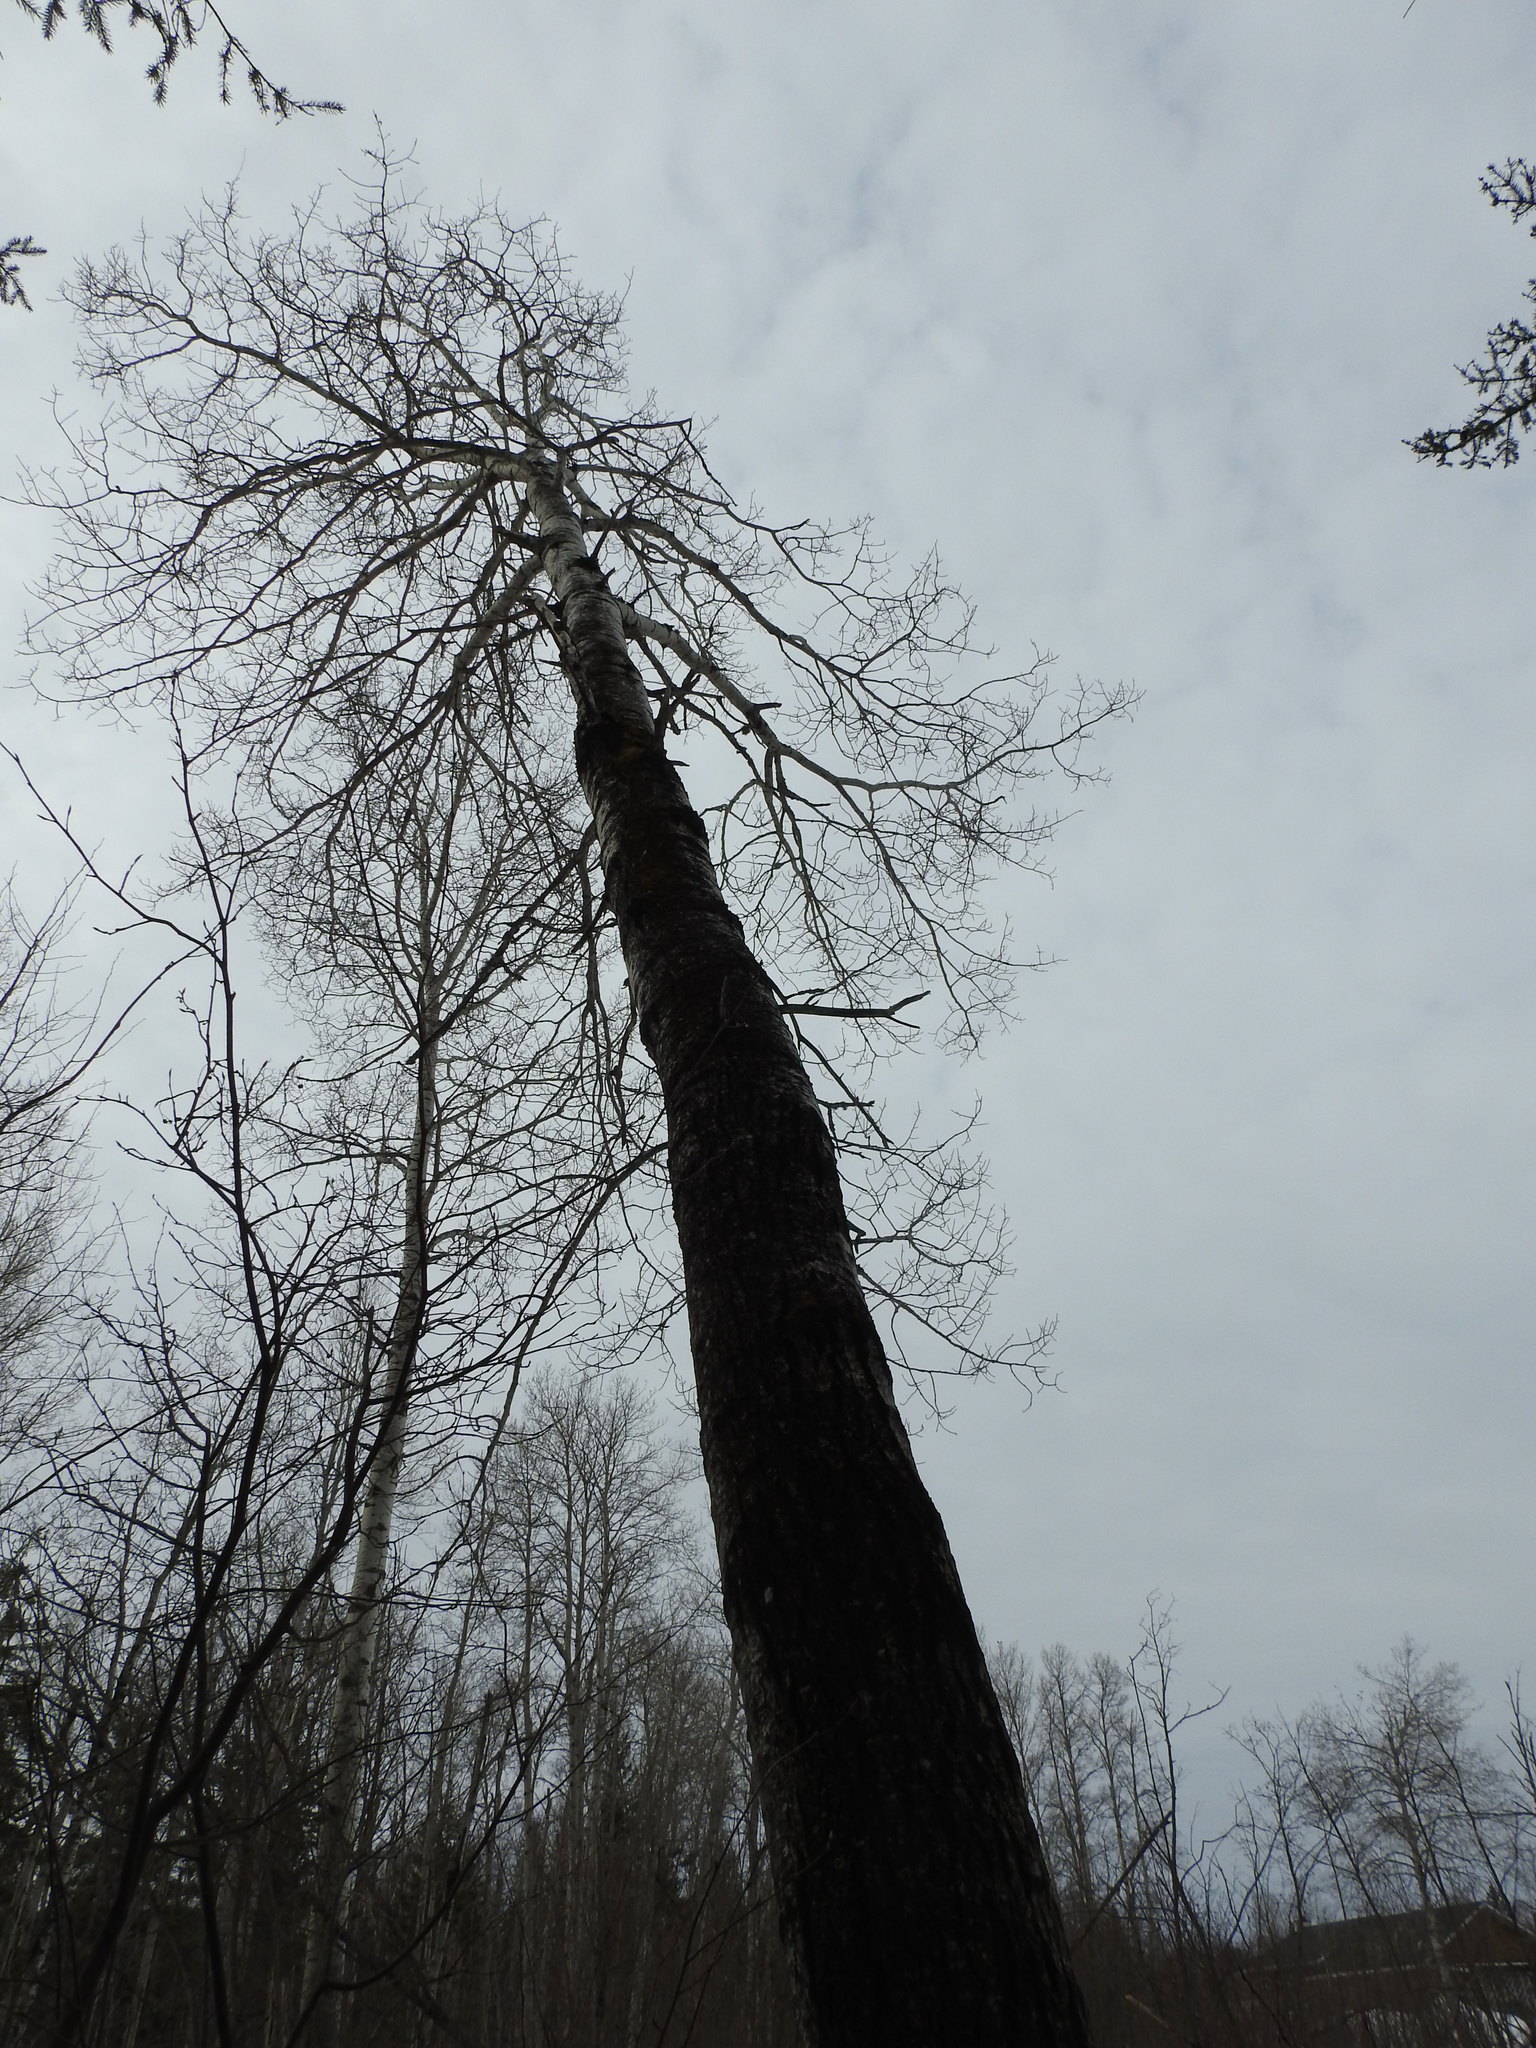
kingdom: Plantae
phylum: Tracheophyta
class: Magnoliopsida
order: Malpighiales
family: Salicaceae
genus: Populus
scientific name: Populus tremuloides
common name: Quaking aspen
